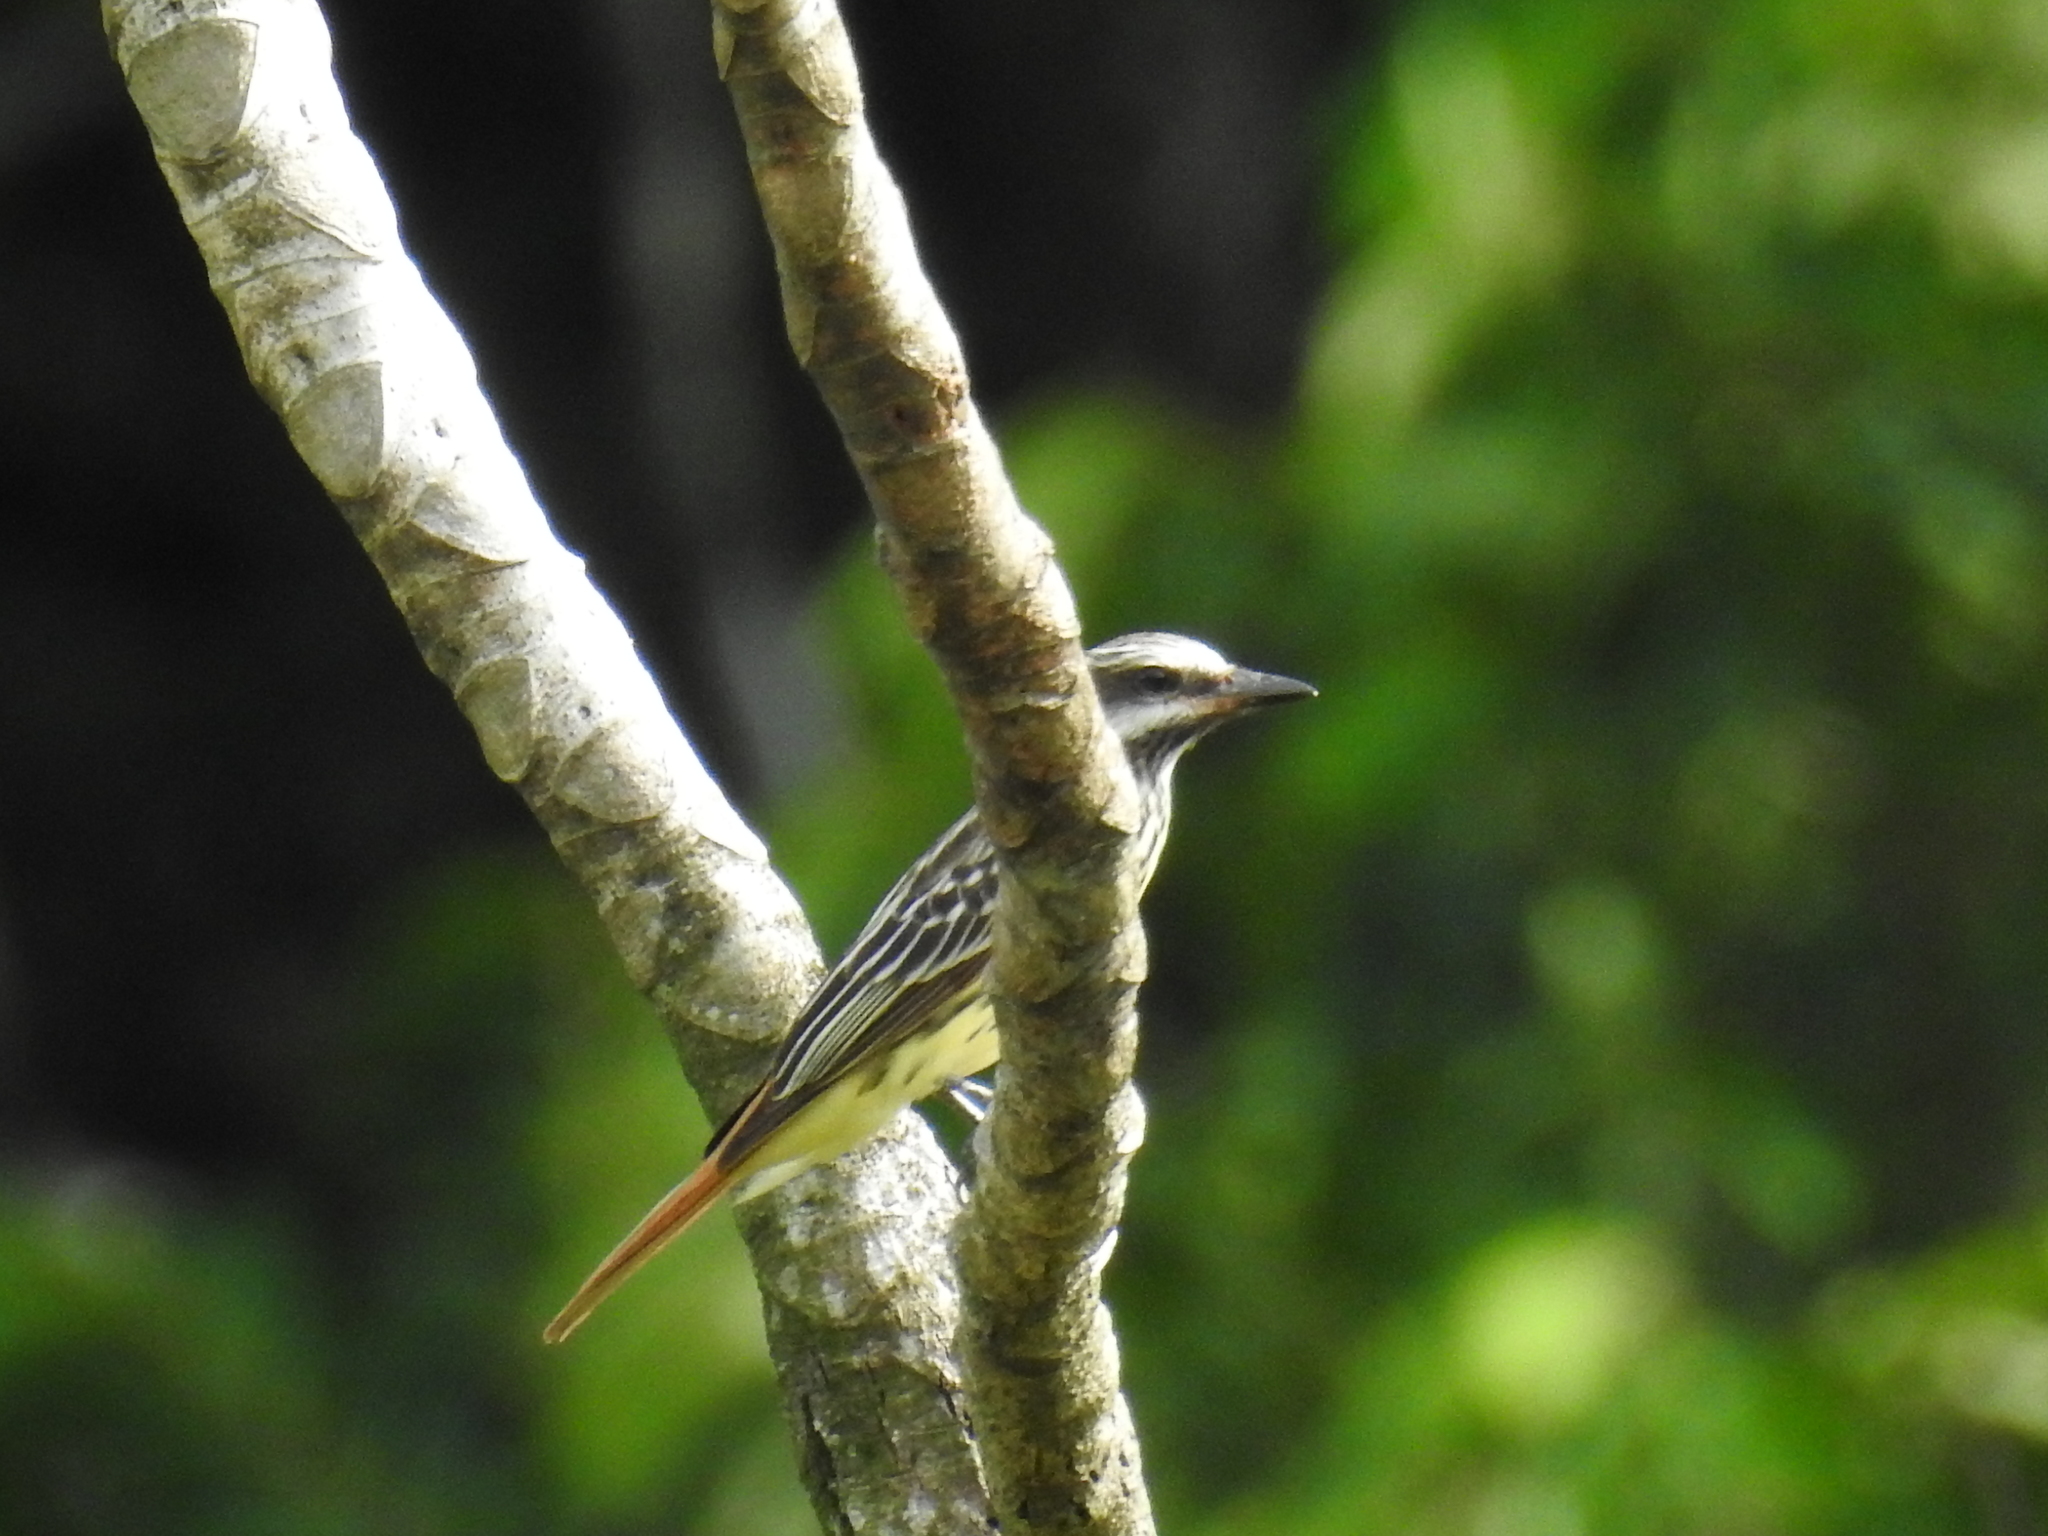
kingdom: Animalia
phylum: Chordata
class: Aves
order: Passeriformes
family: Tyrannidae
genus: Myiodynastes
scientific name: Myiodynastes luteiventris
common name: Sulphur-bellied flycatcher
